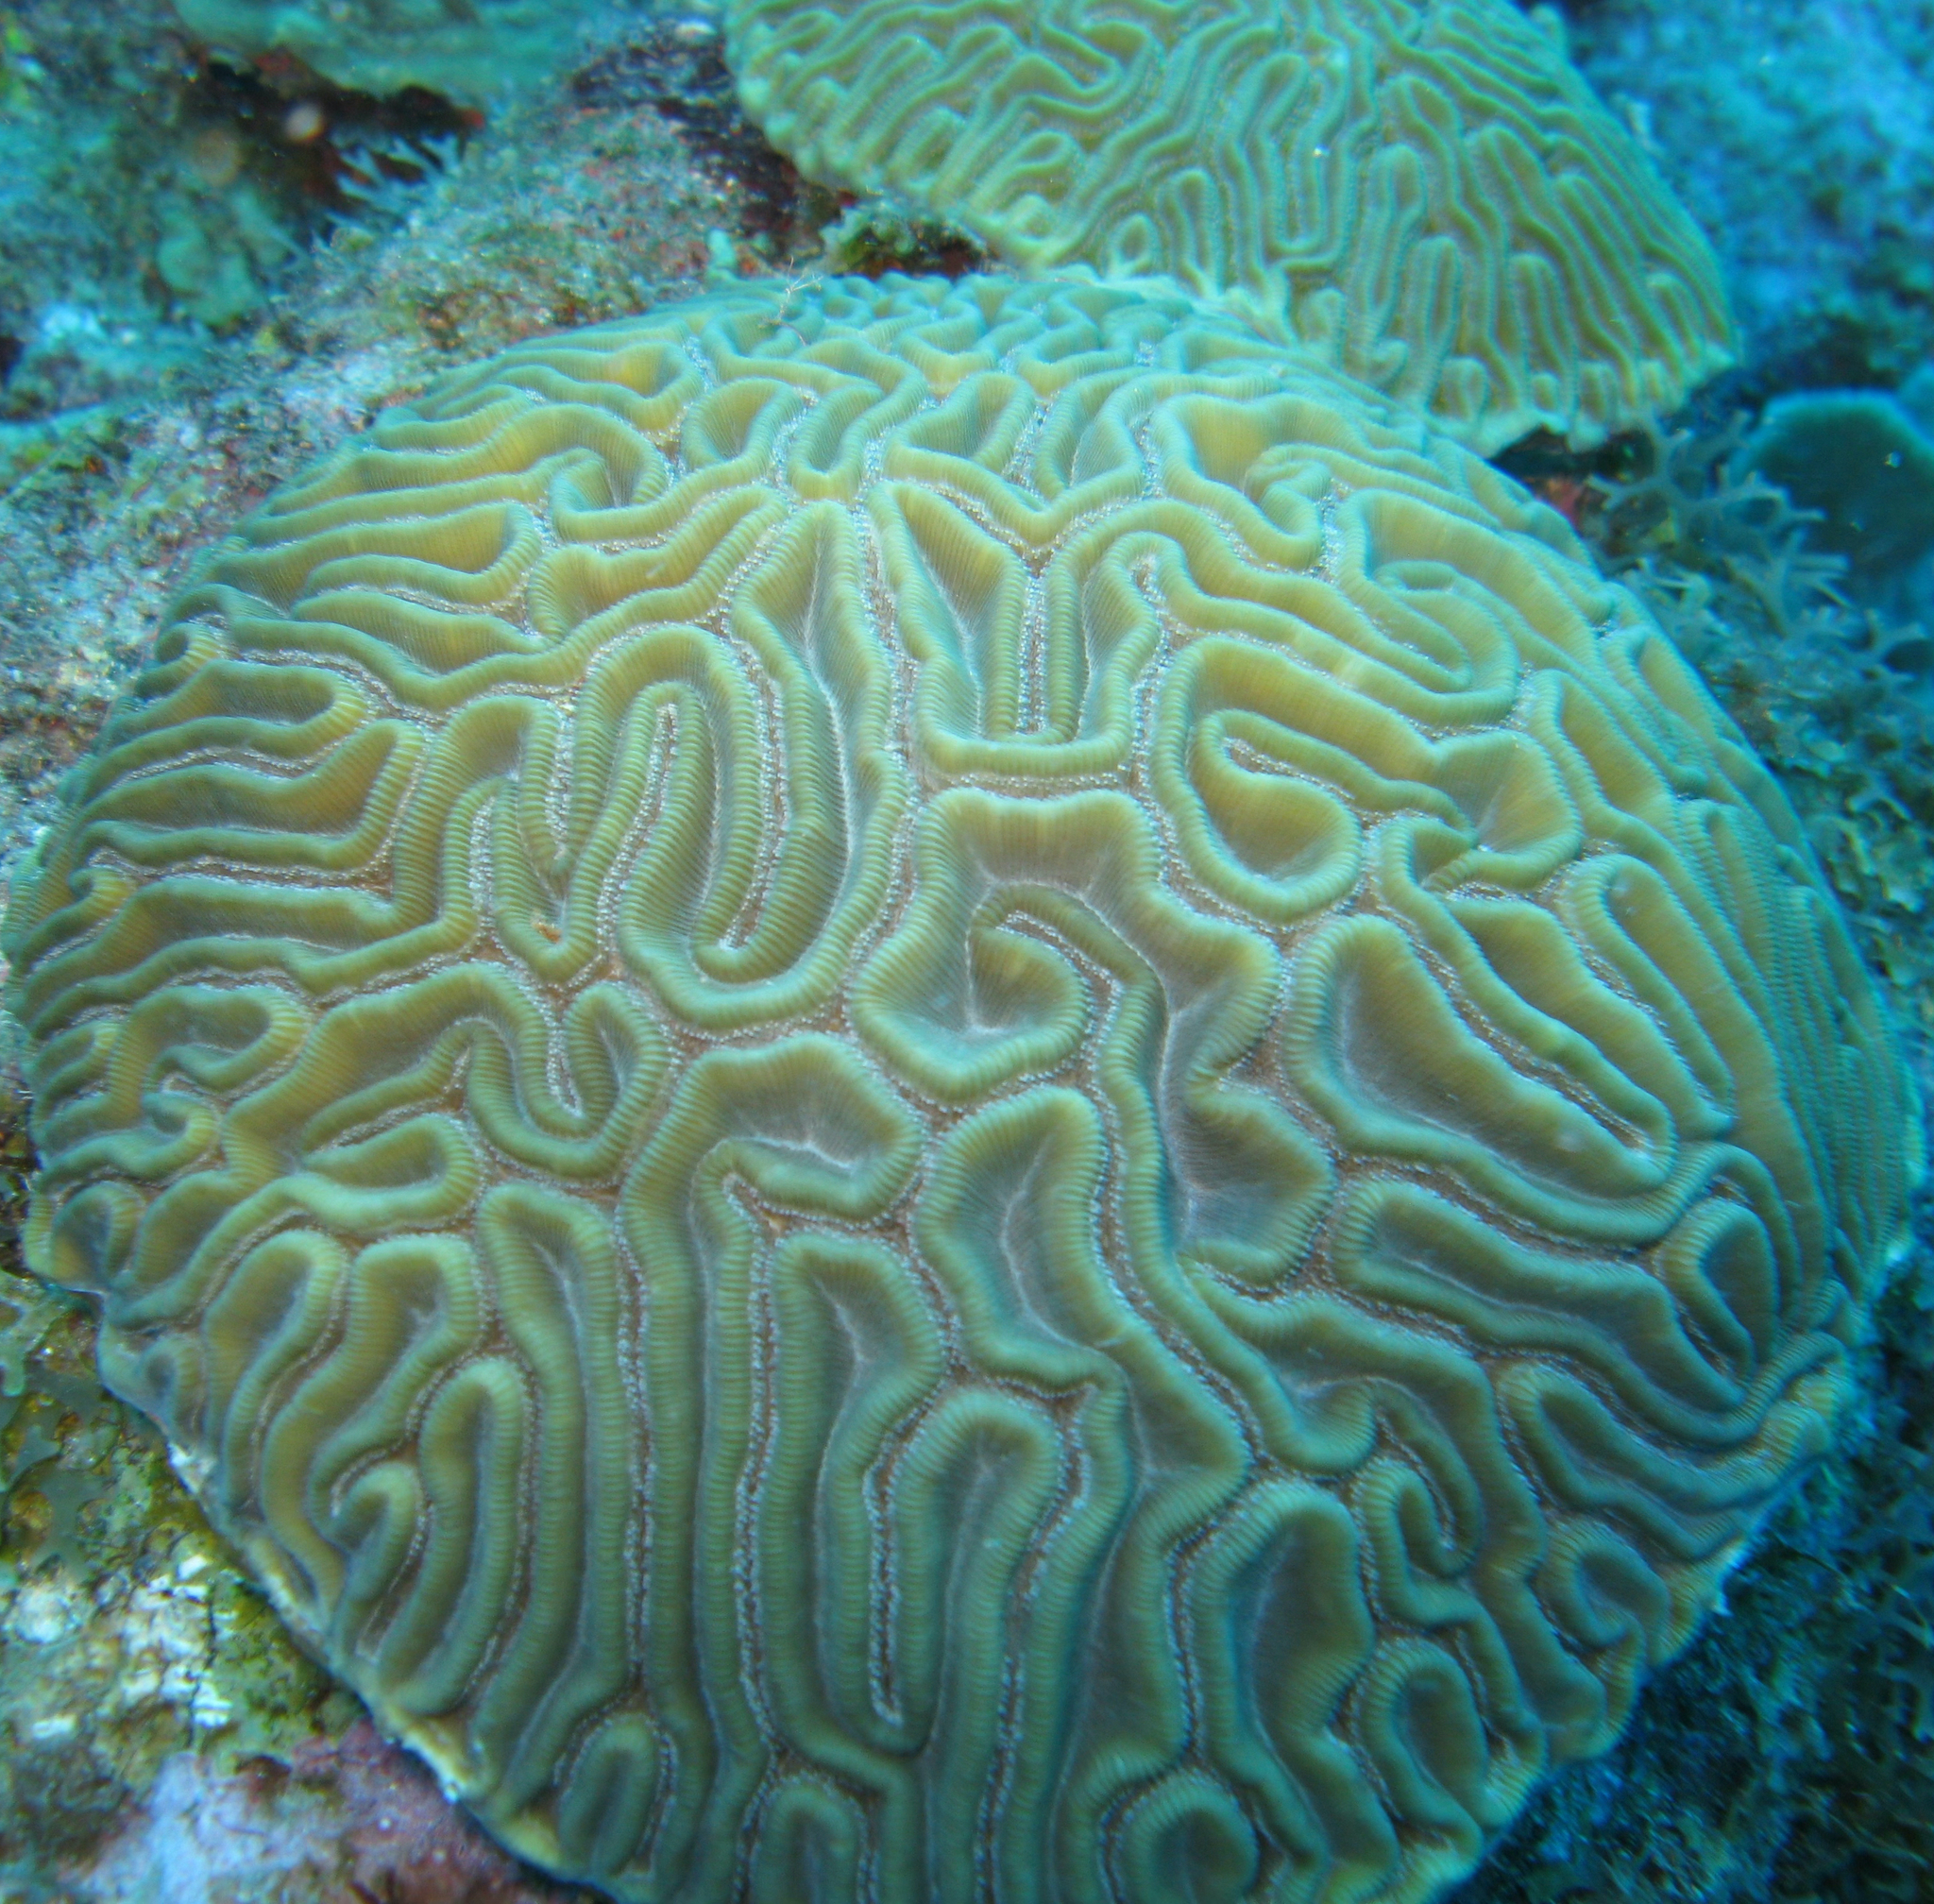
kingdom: Animalia
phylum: Cnidaria
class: Anthozoa
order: Scleractinia
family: Faviidae
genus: Diploria
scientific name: Diploria labyrinthiformis
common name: Grooved brain coral
